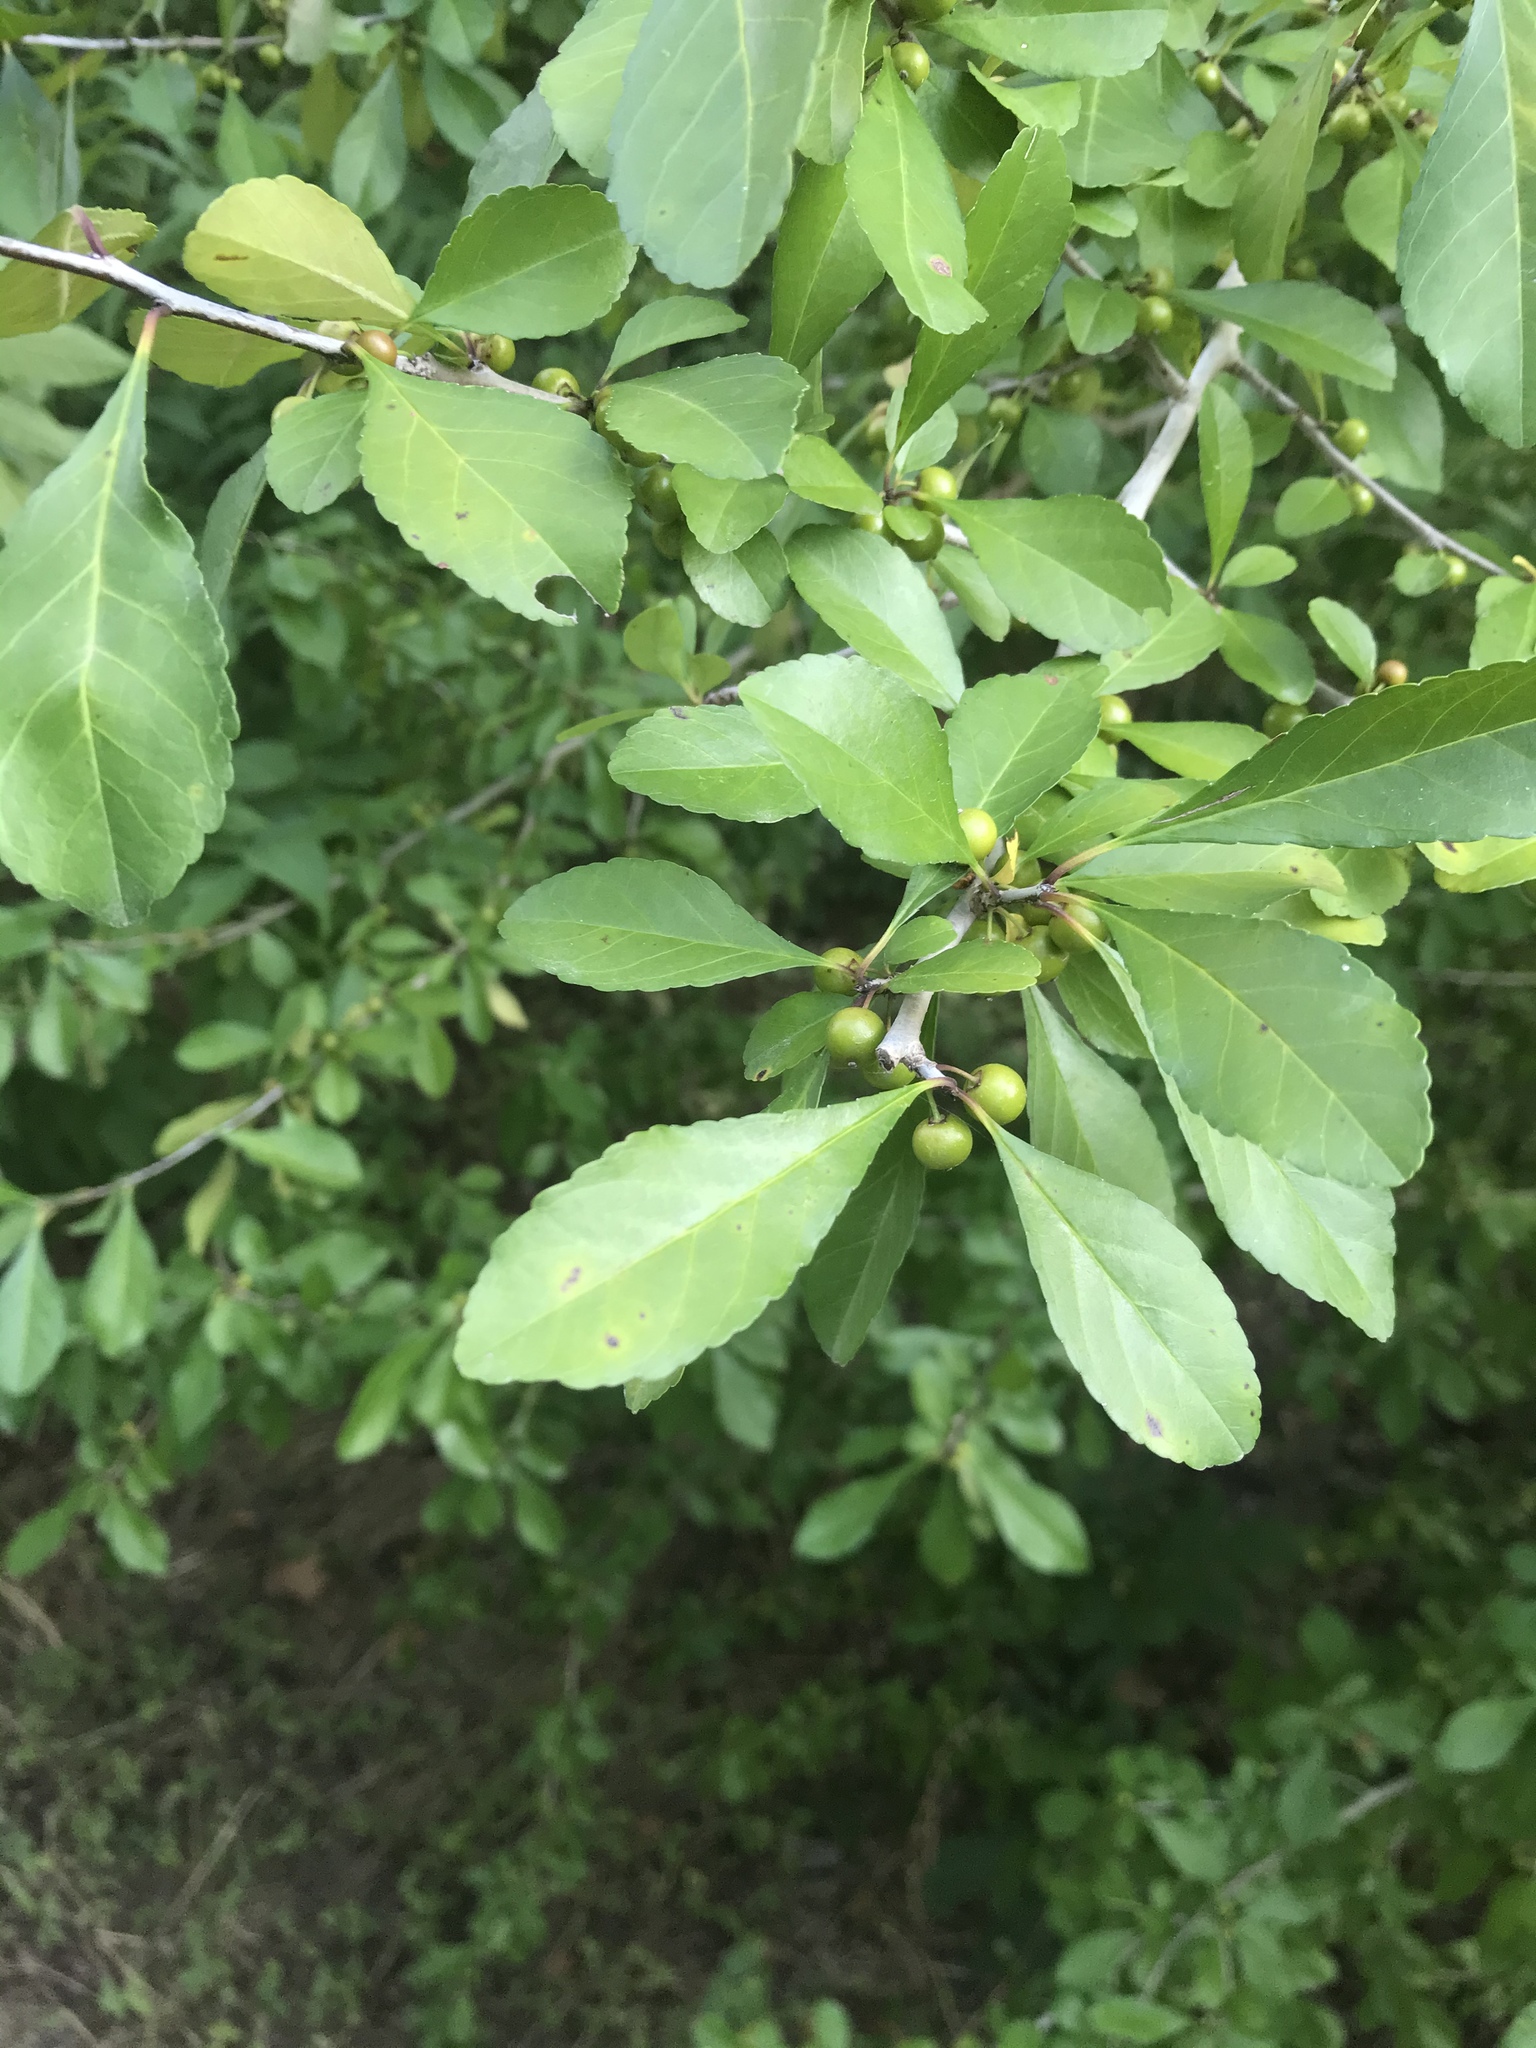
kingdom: Plantae
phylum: Tracheophyta
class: Magnoliopsida
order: Aquifoliales
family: Aquifoliaceae
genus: Ilex
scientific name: Ilex decidua
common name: Possum-haw
